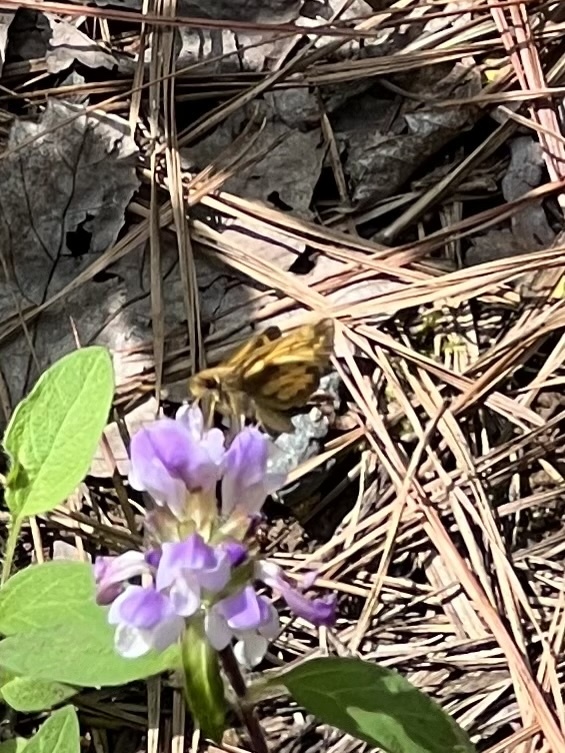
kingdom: Animalia
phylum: Arthropoda
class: Insecta
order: Lepidoptera
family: Hesperiidae
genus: Lon
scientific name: Lon zabulon
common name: Zabulon skipper
